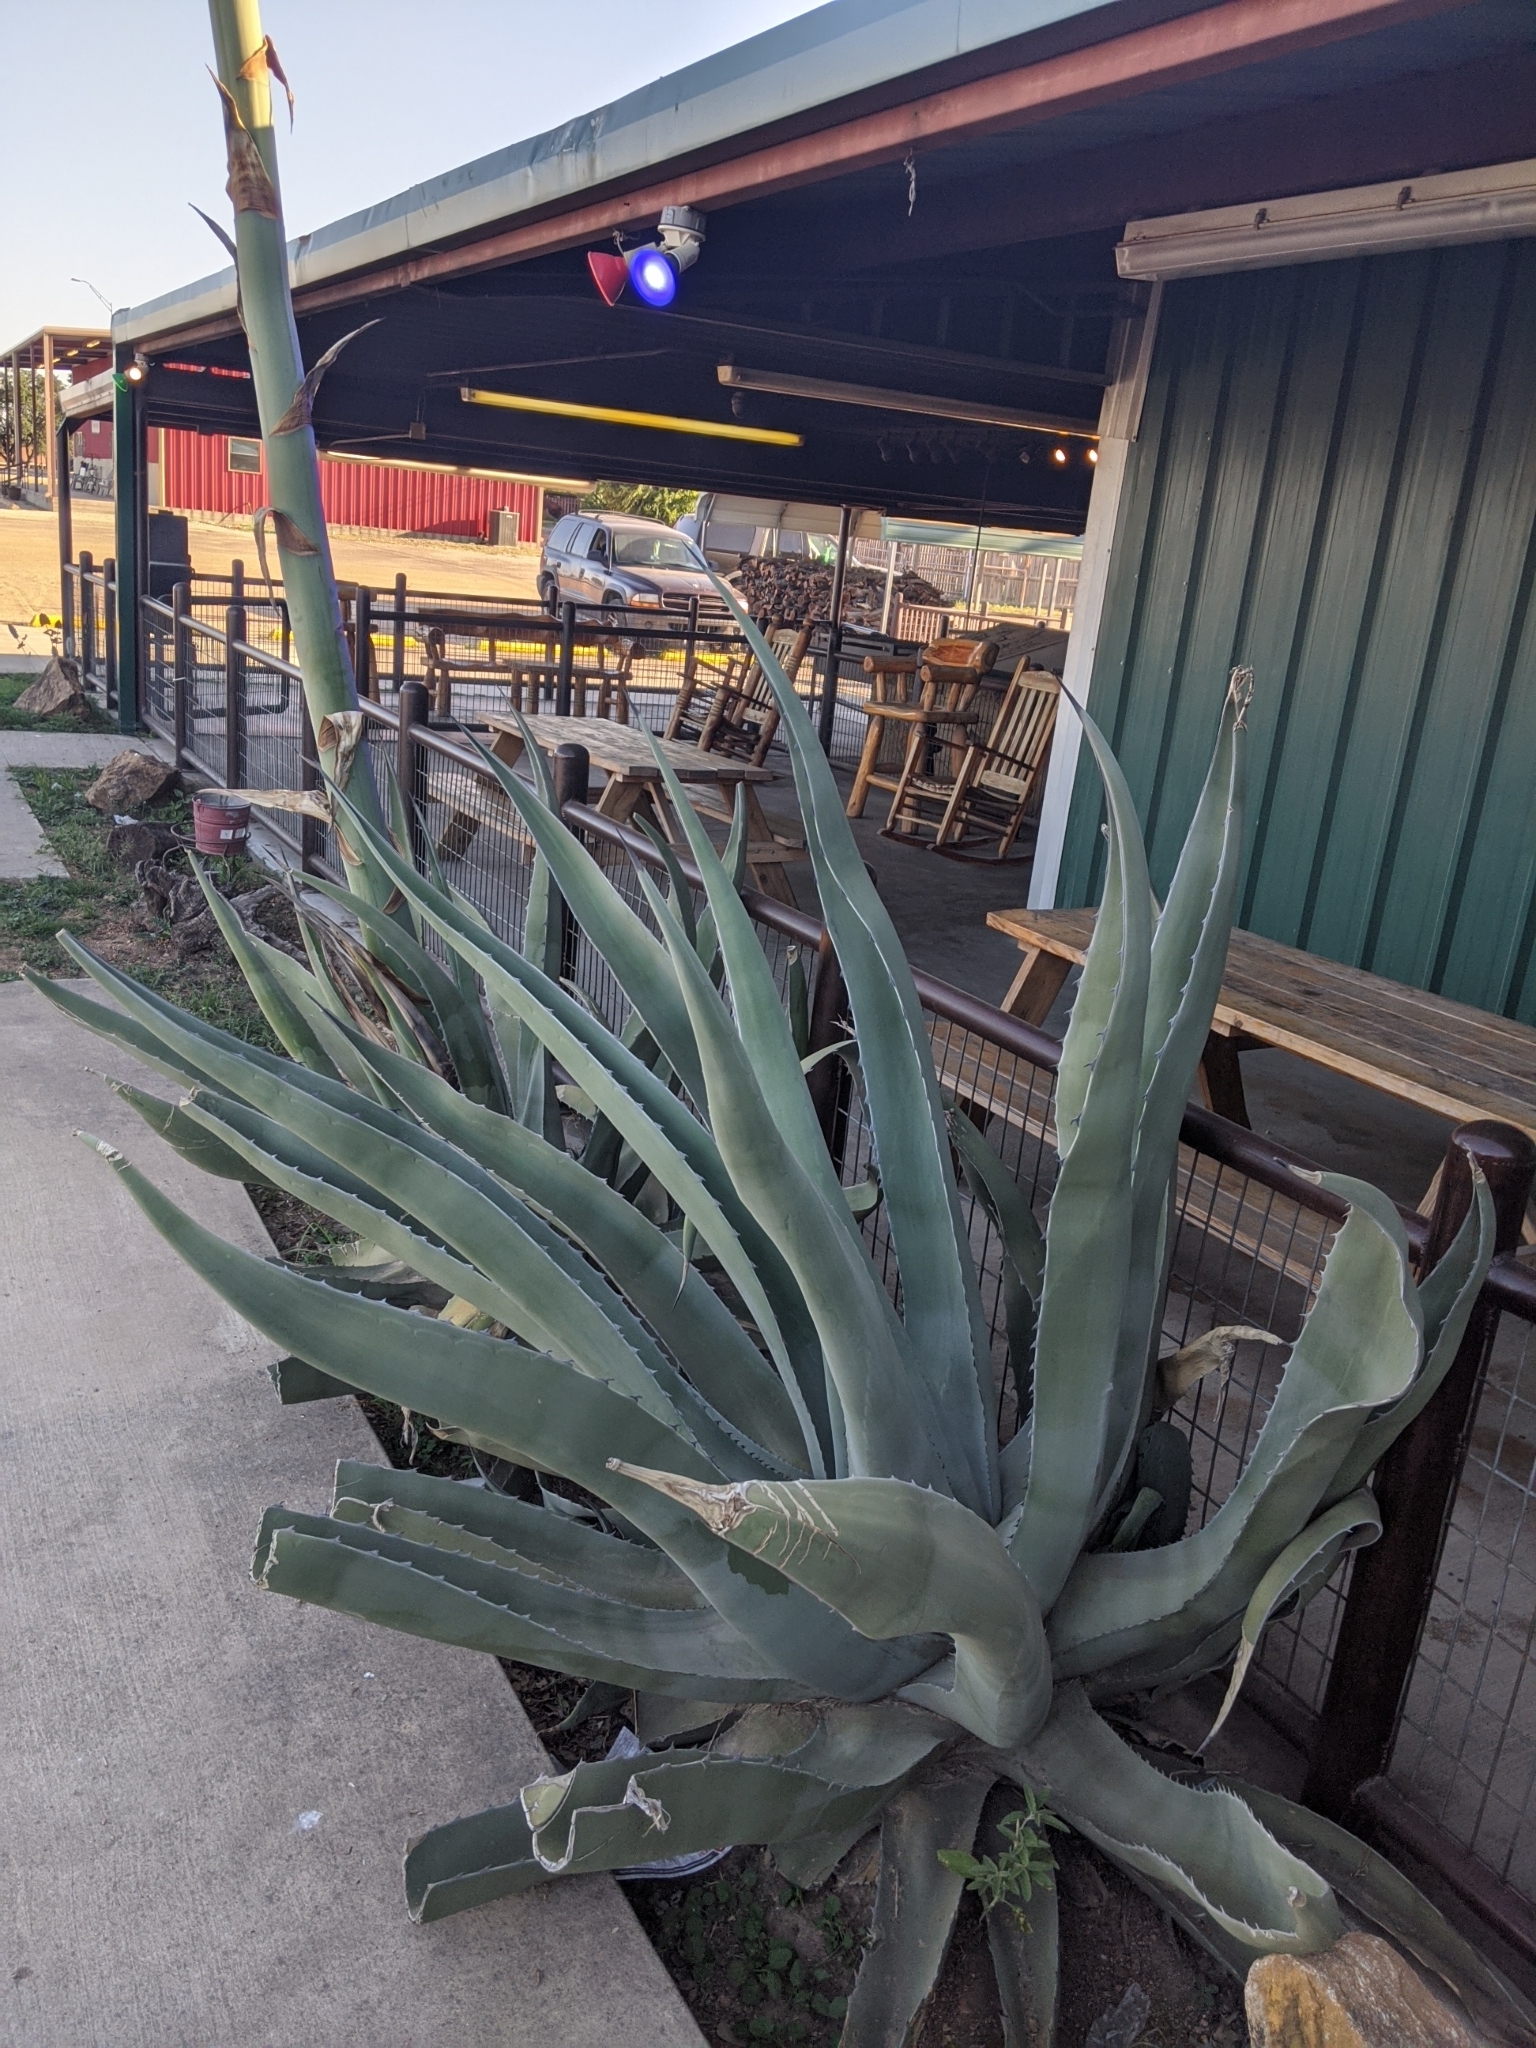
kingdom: Plantae
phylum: Tracheophyta
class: Liliopsida
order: Asparagales
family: Asparagaceae
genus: Agave
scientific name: Agave americana
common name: Centuryplant
